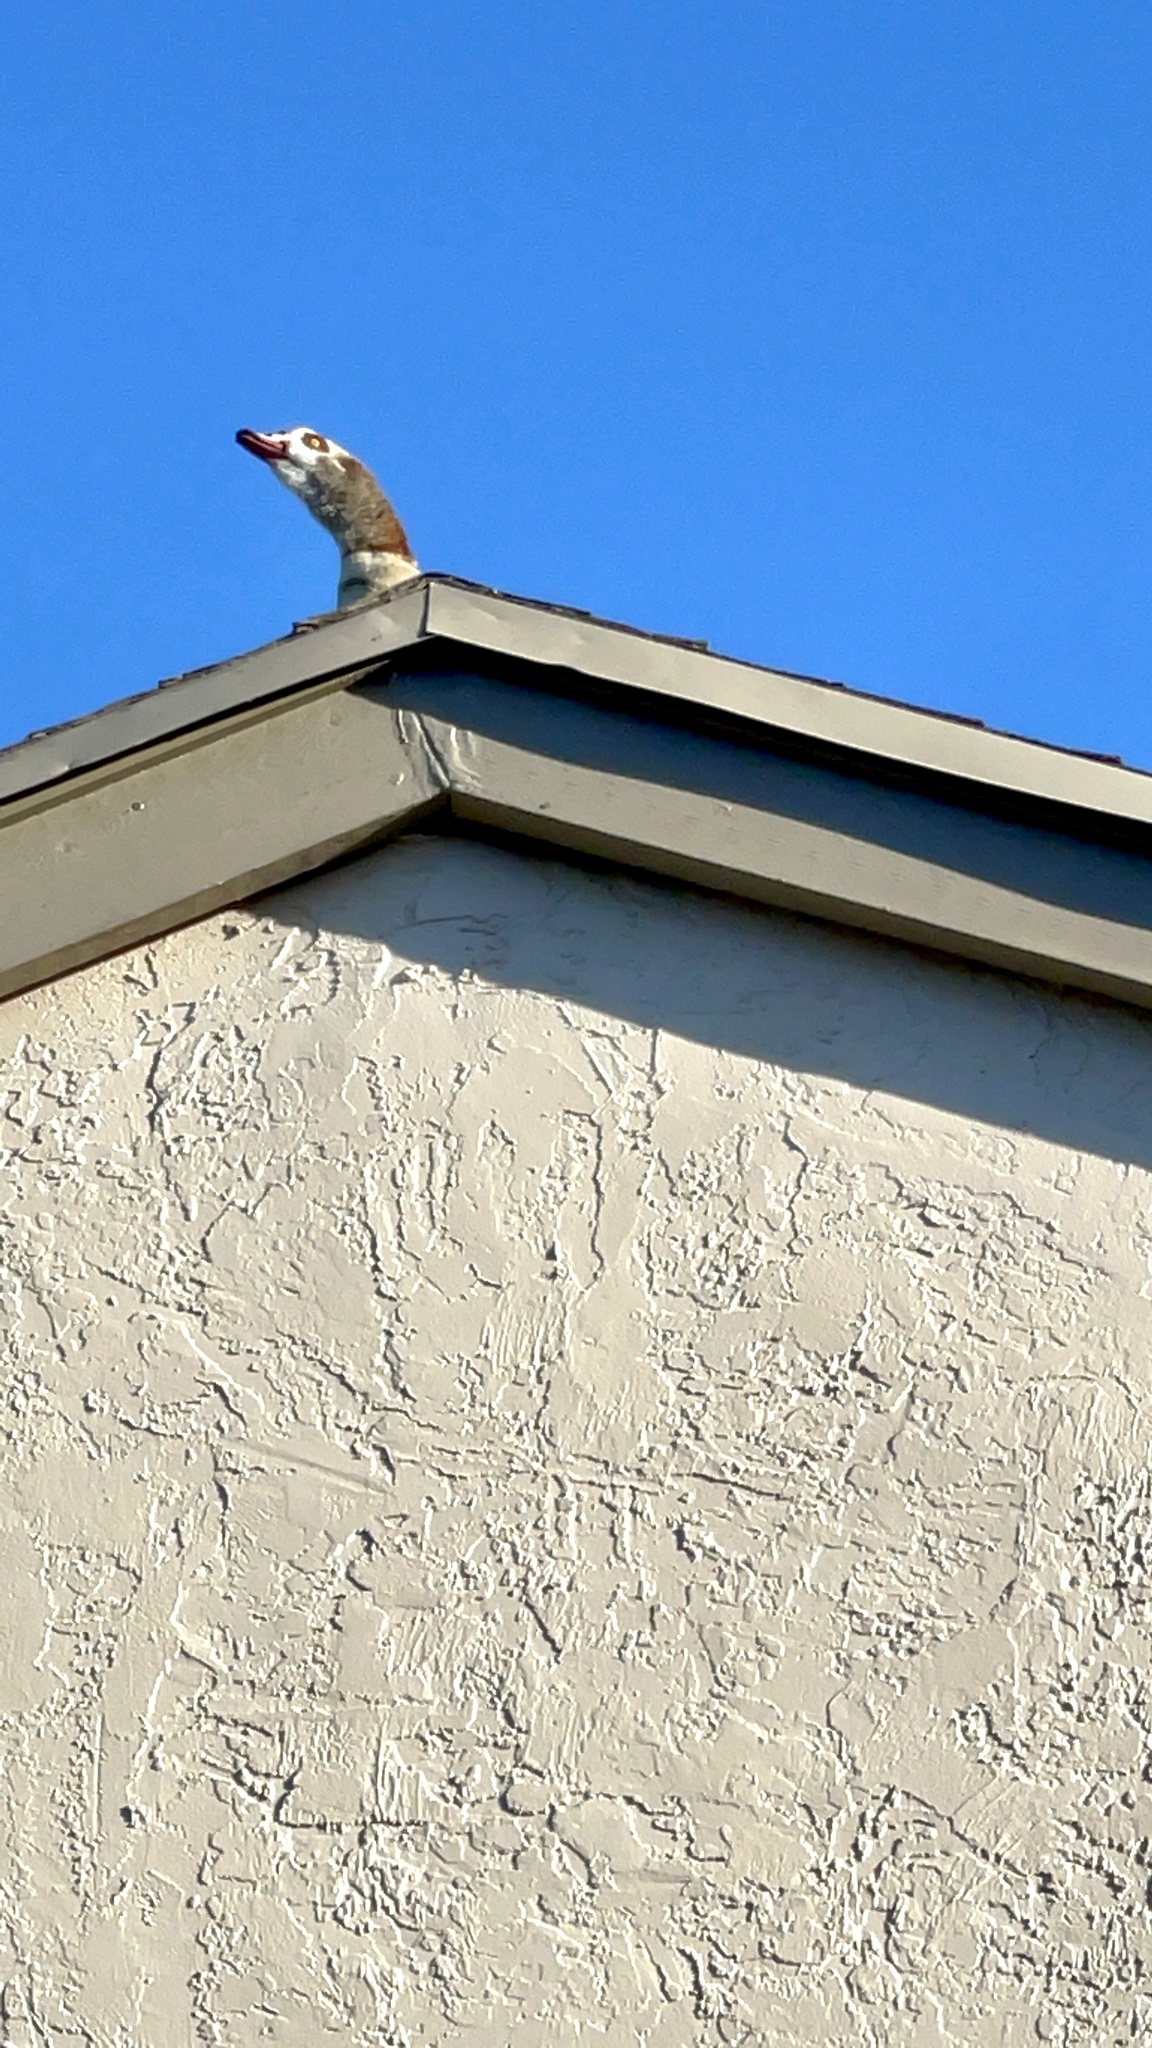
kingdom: Animalia
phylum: Chordata
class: Aves
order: Anseriformes
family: Anatidae
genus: Alopochen
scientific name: Alopochen aegyptiaca
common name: Egyptian goose
